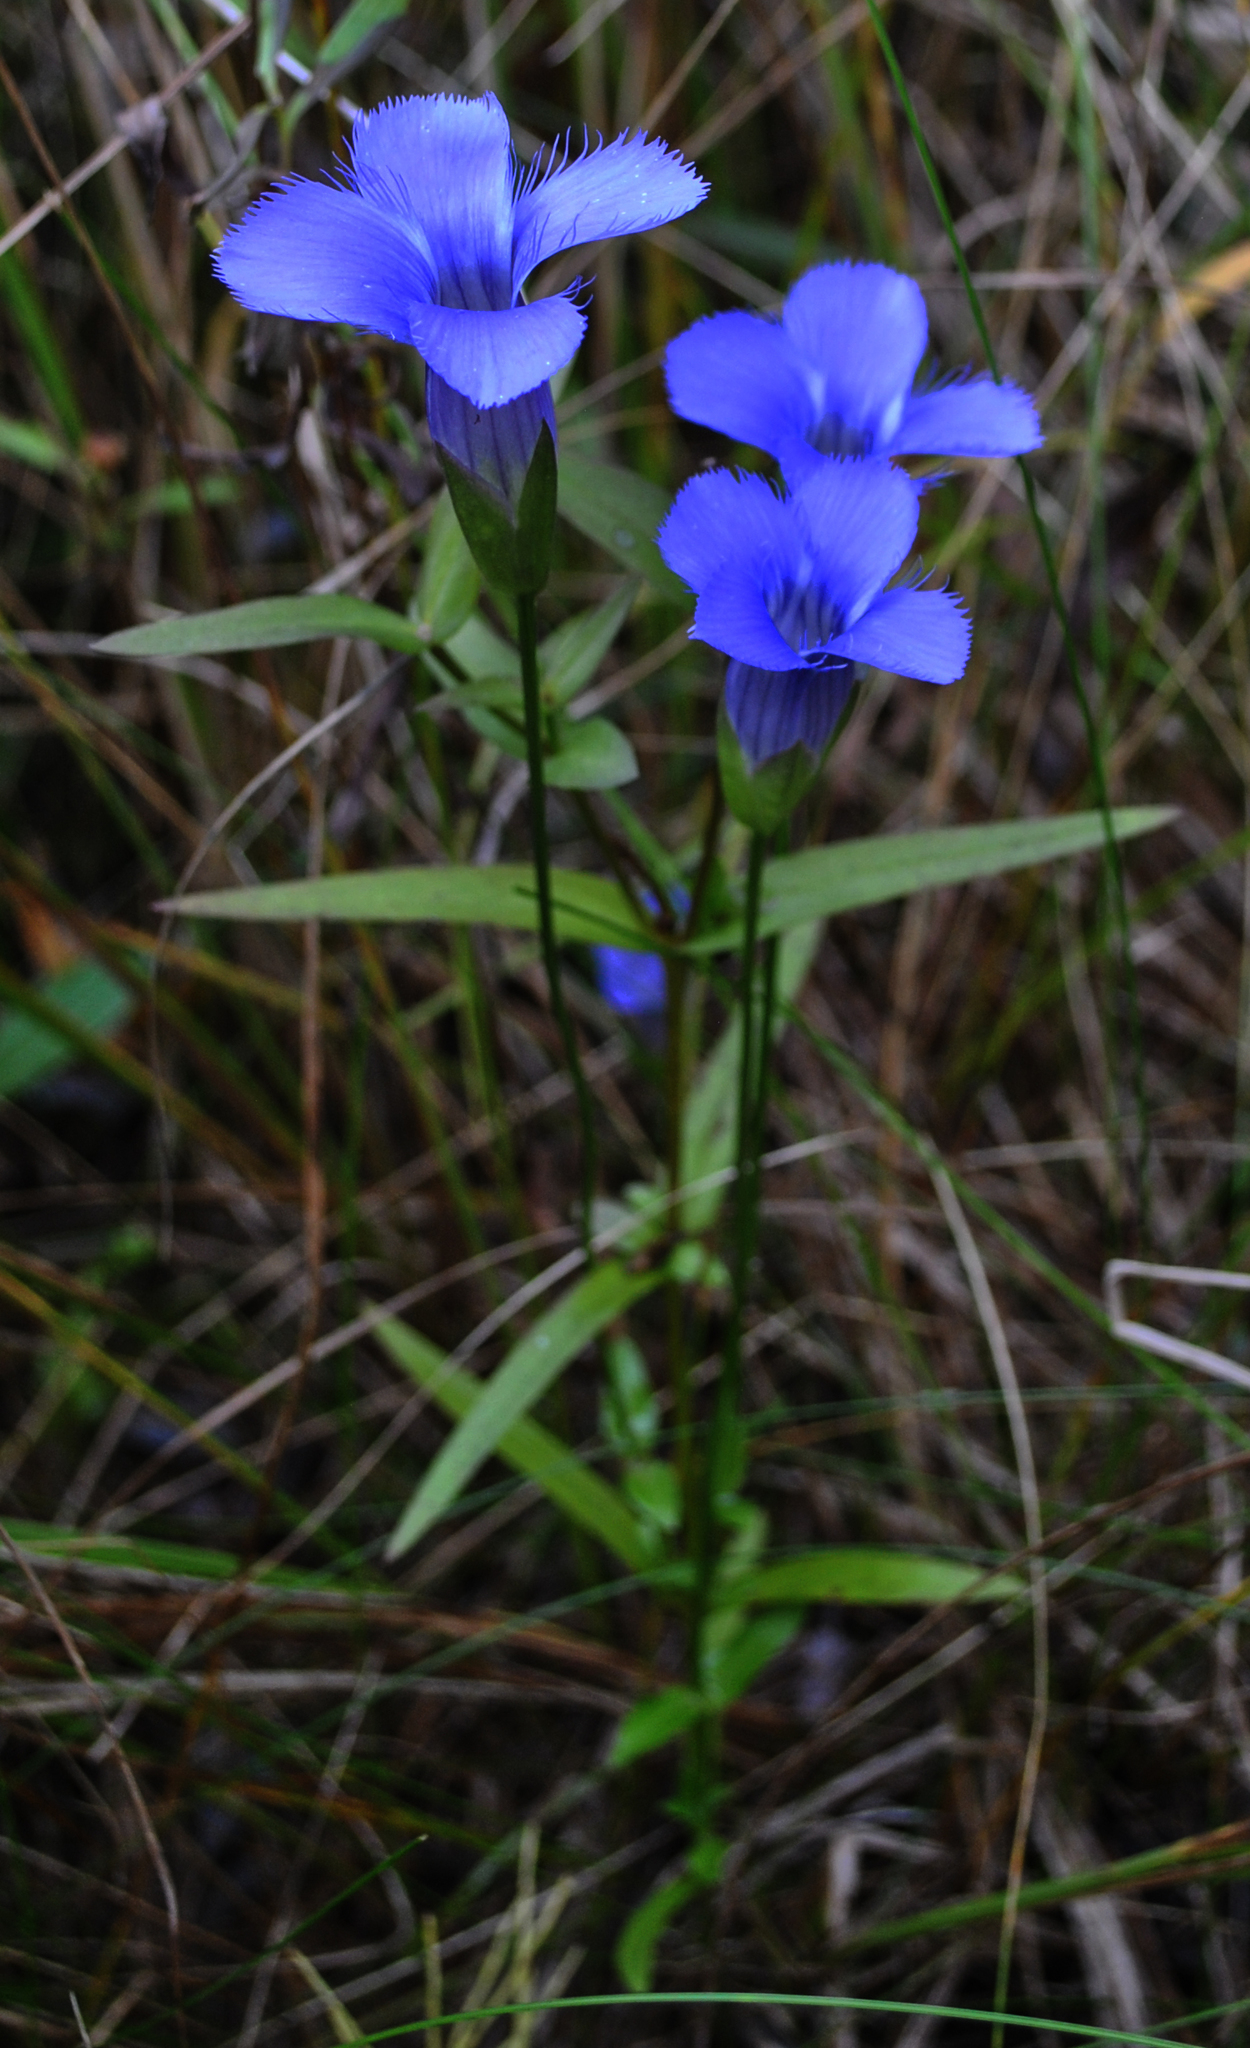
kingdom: Plantae
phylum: Tracheophyta
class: Magnoliopsida
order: Gentianales
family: Gentianaceae
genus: Gentianopsis
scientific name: Gentianopsis virgata
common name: Lesser fringed-gentian
